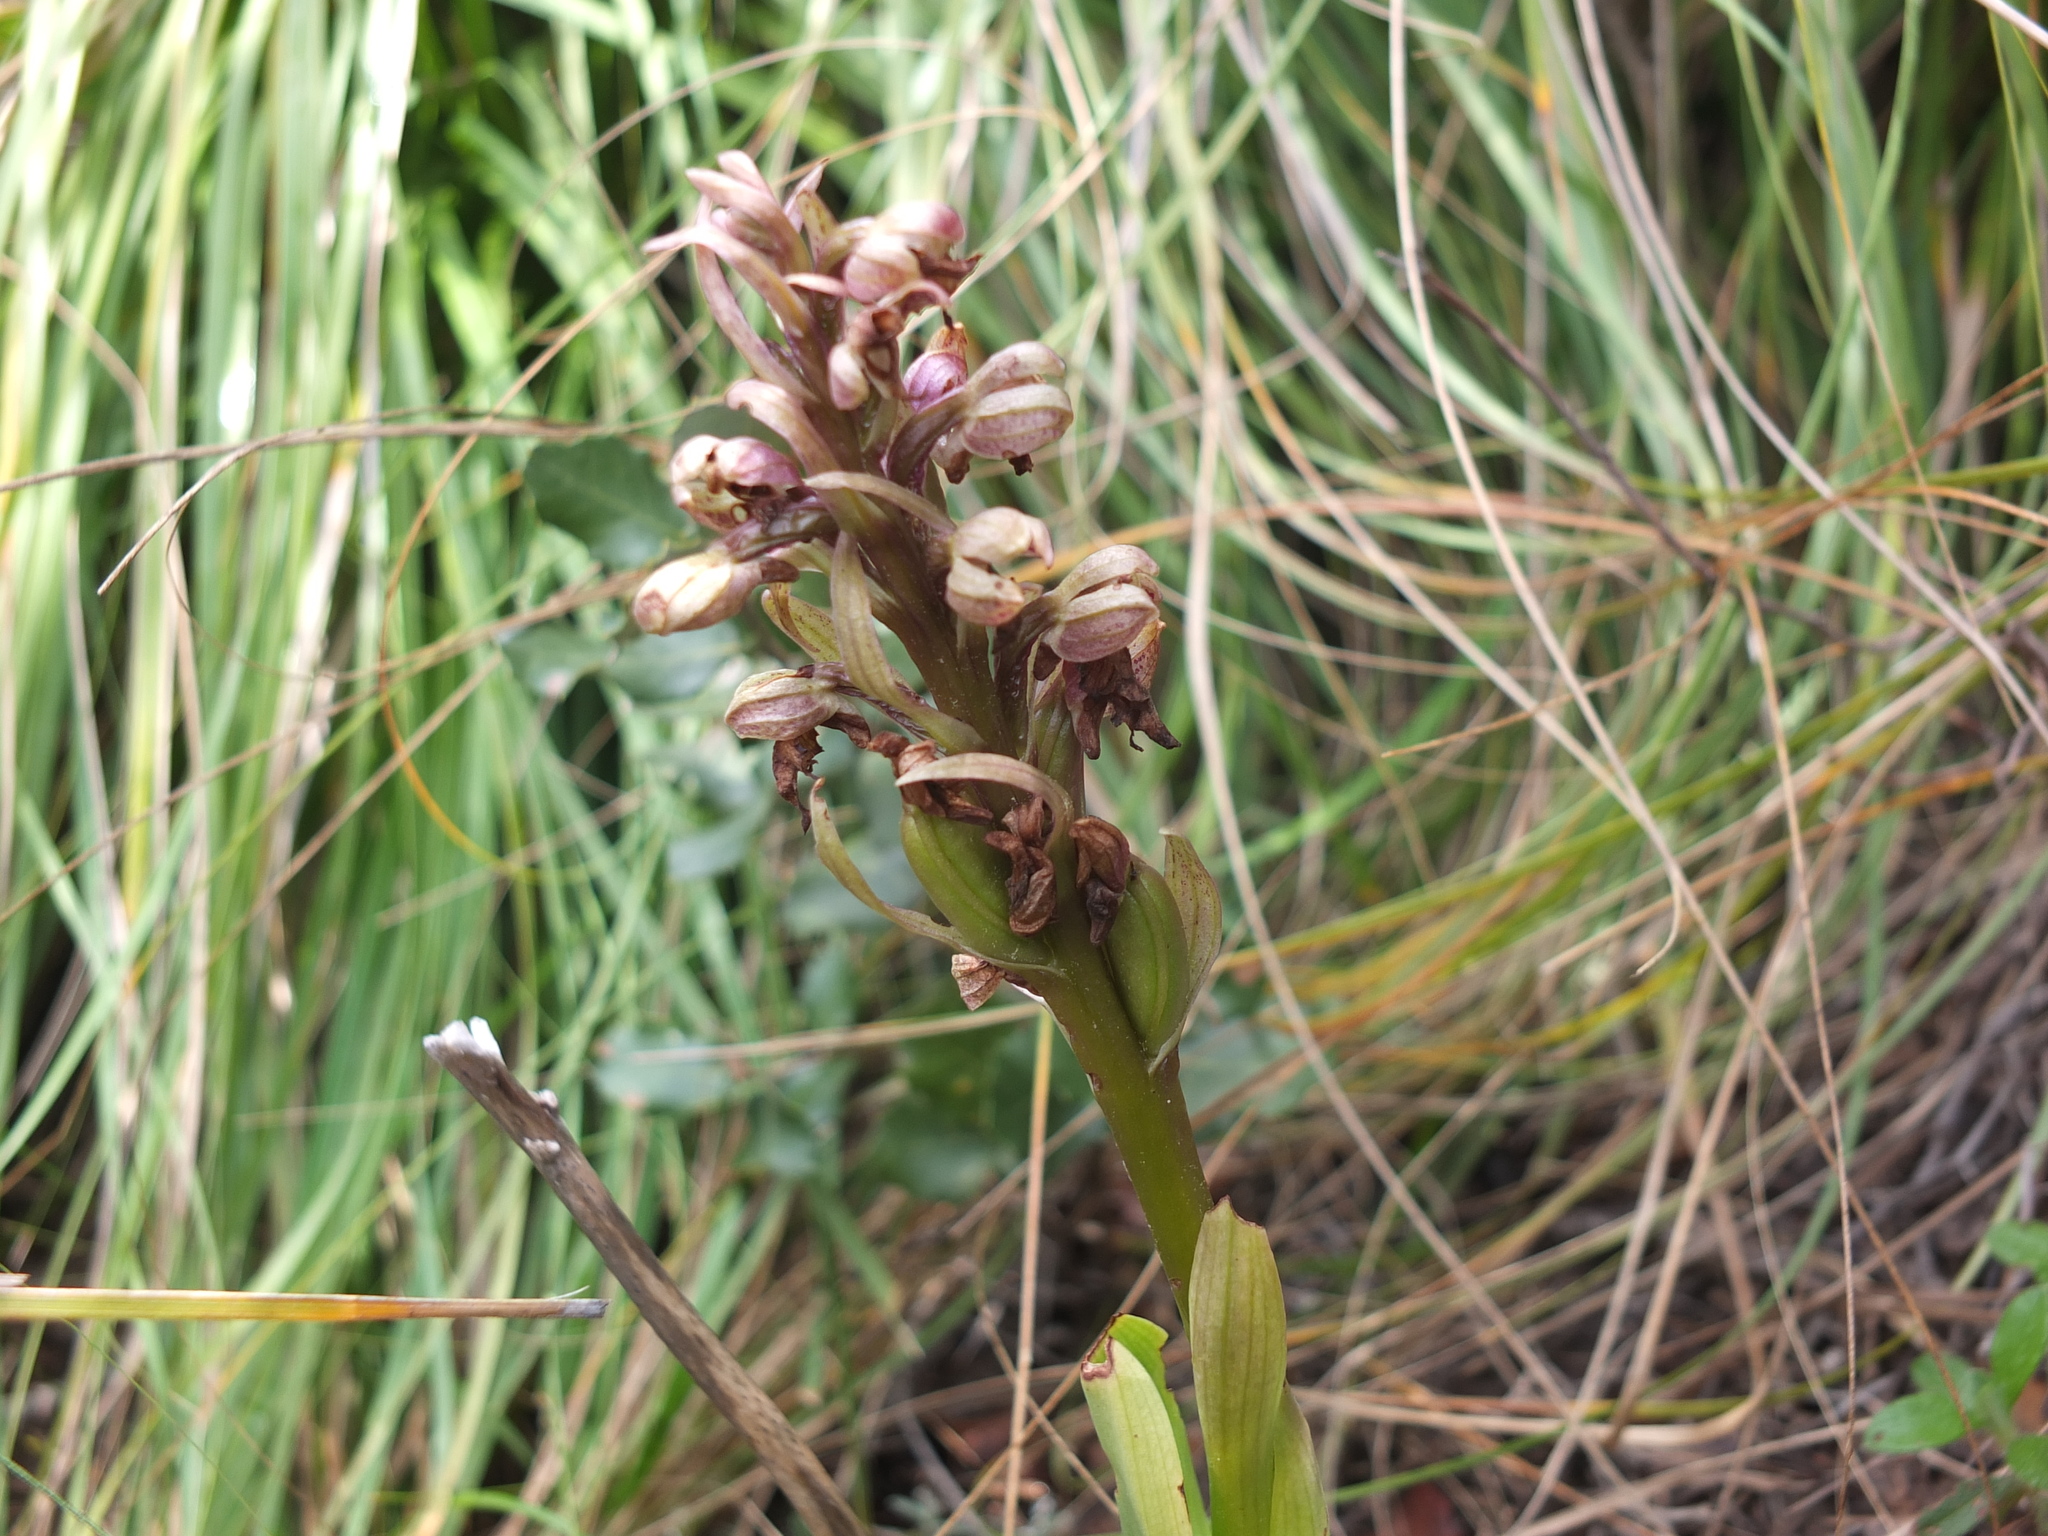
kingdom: Plantae
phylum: Tracheophyta
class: Liliopsida
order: Asparagales
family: Orchidaceae
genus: Himantoglossum
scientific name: Himantoglossum robertianum
